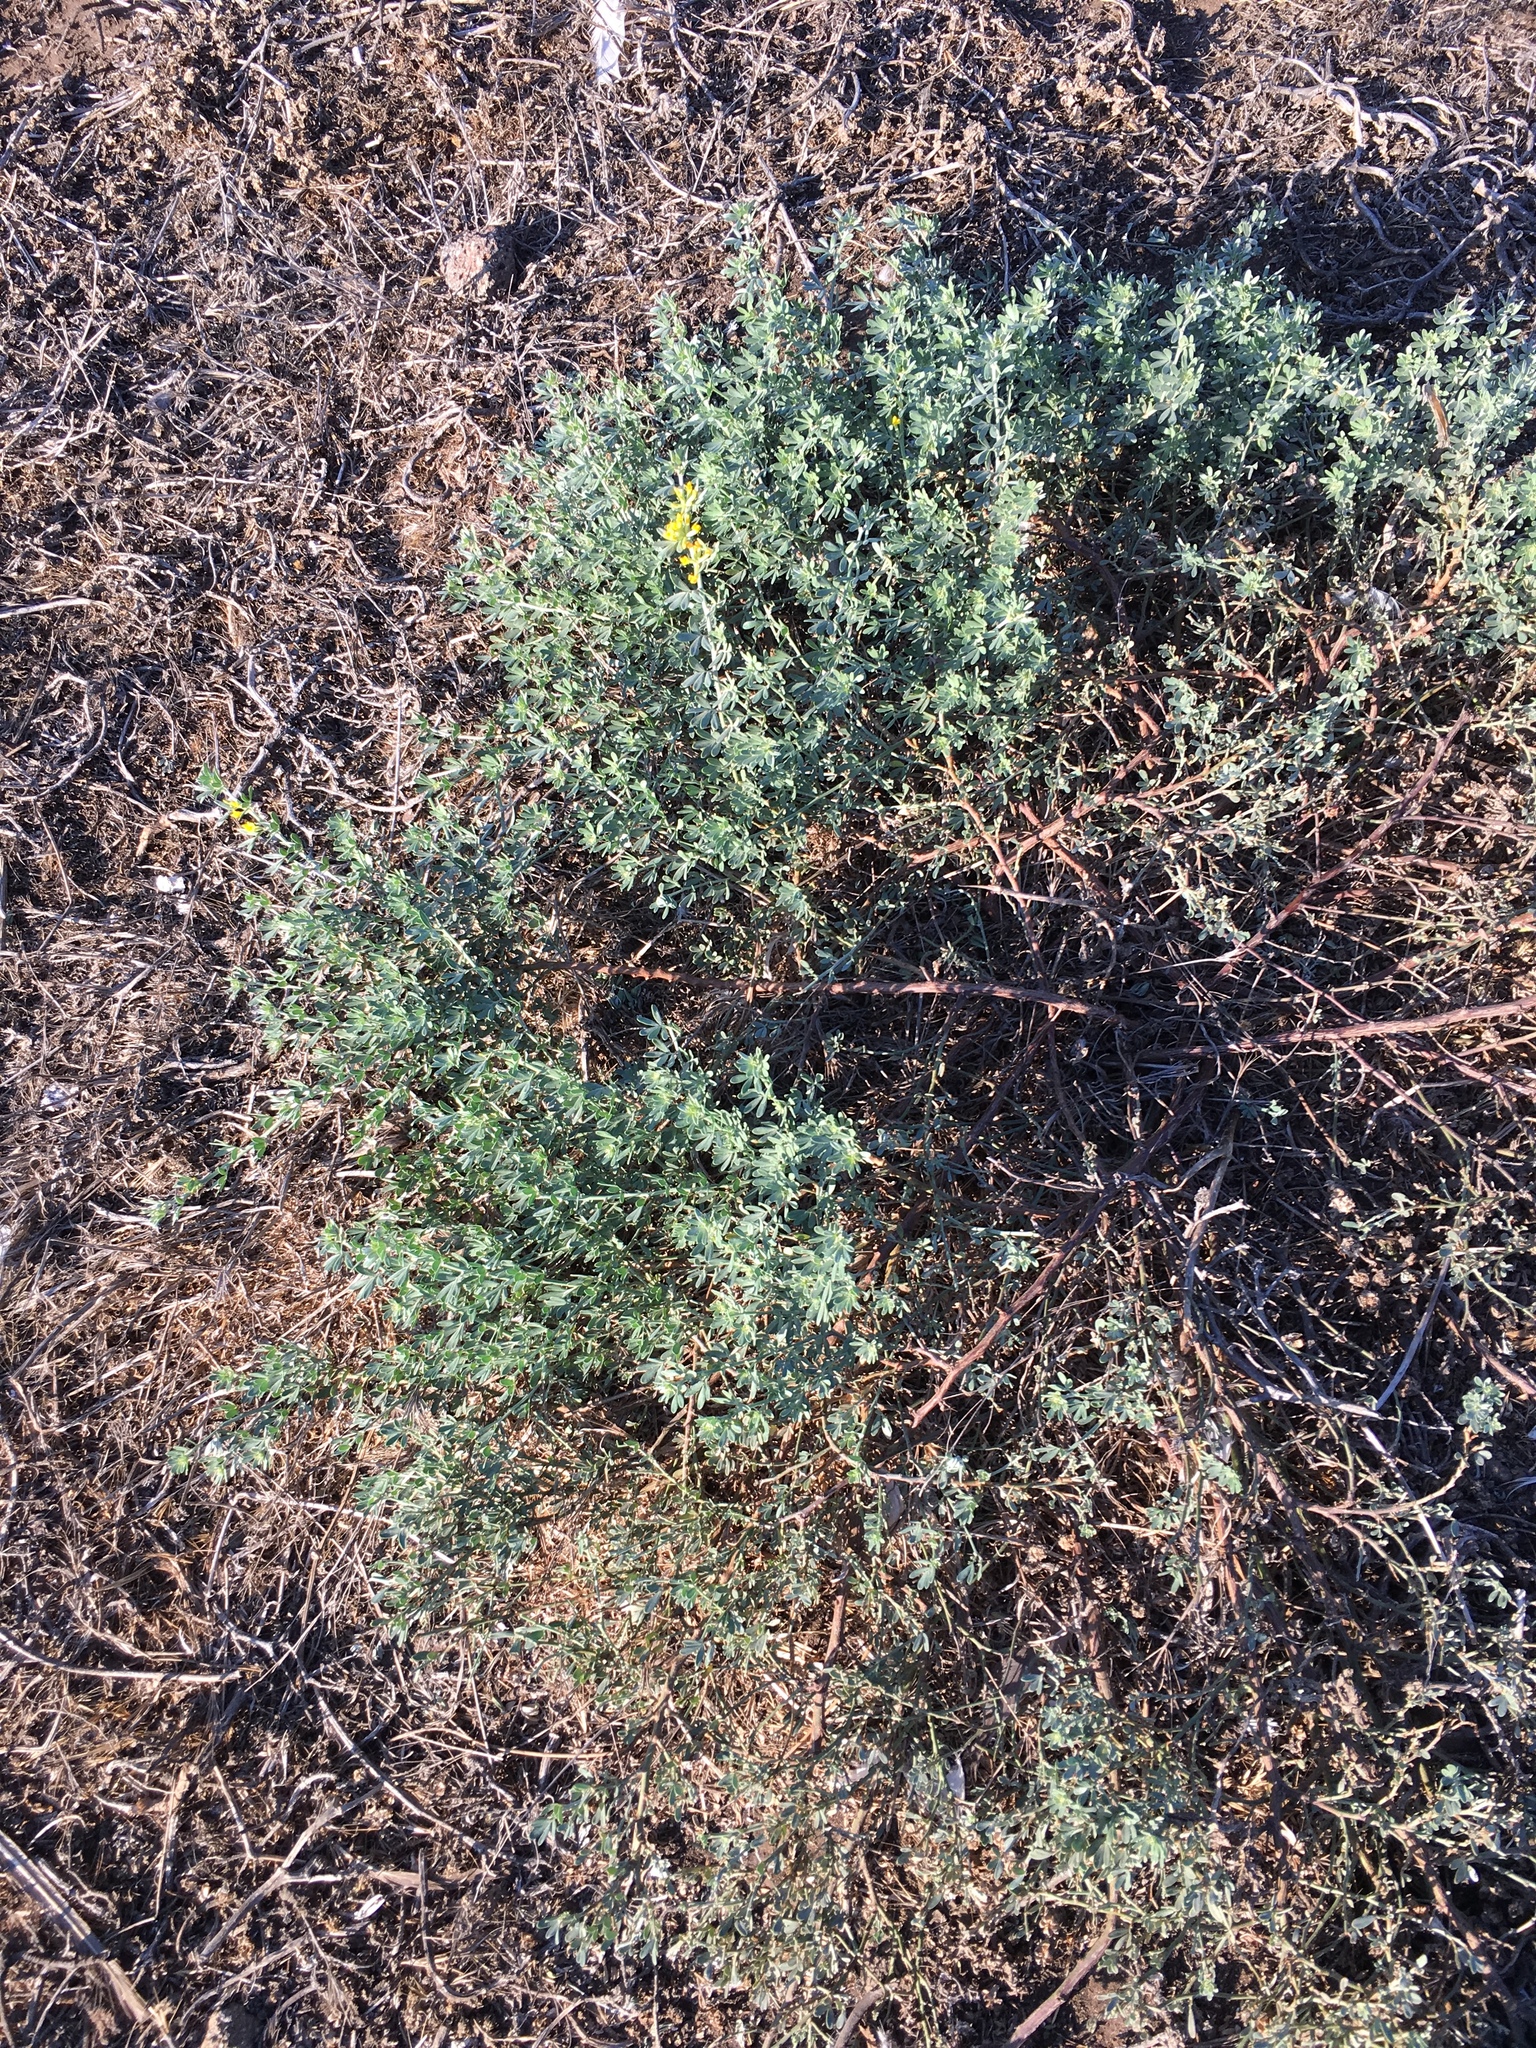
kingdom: Plantae
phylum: Tracheophyta
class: Magnoliopsida
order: Fabales
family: Fabaceae
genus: Acmispon
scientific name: Acmispon dendroideus
